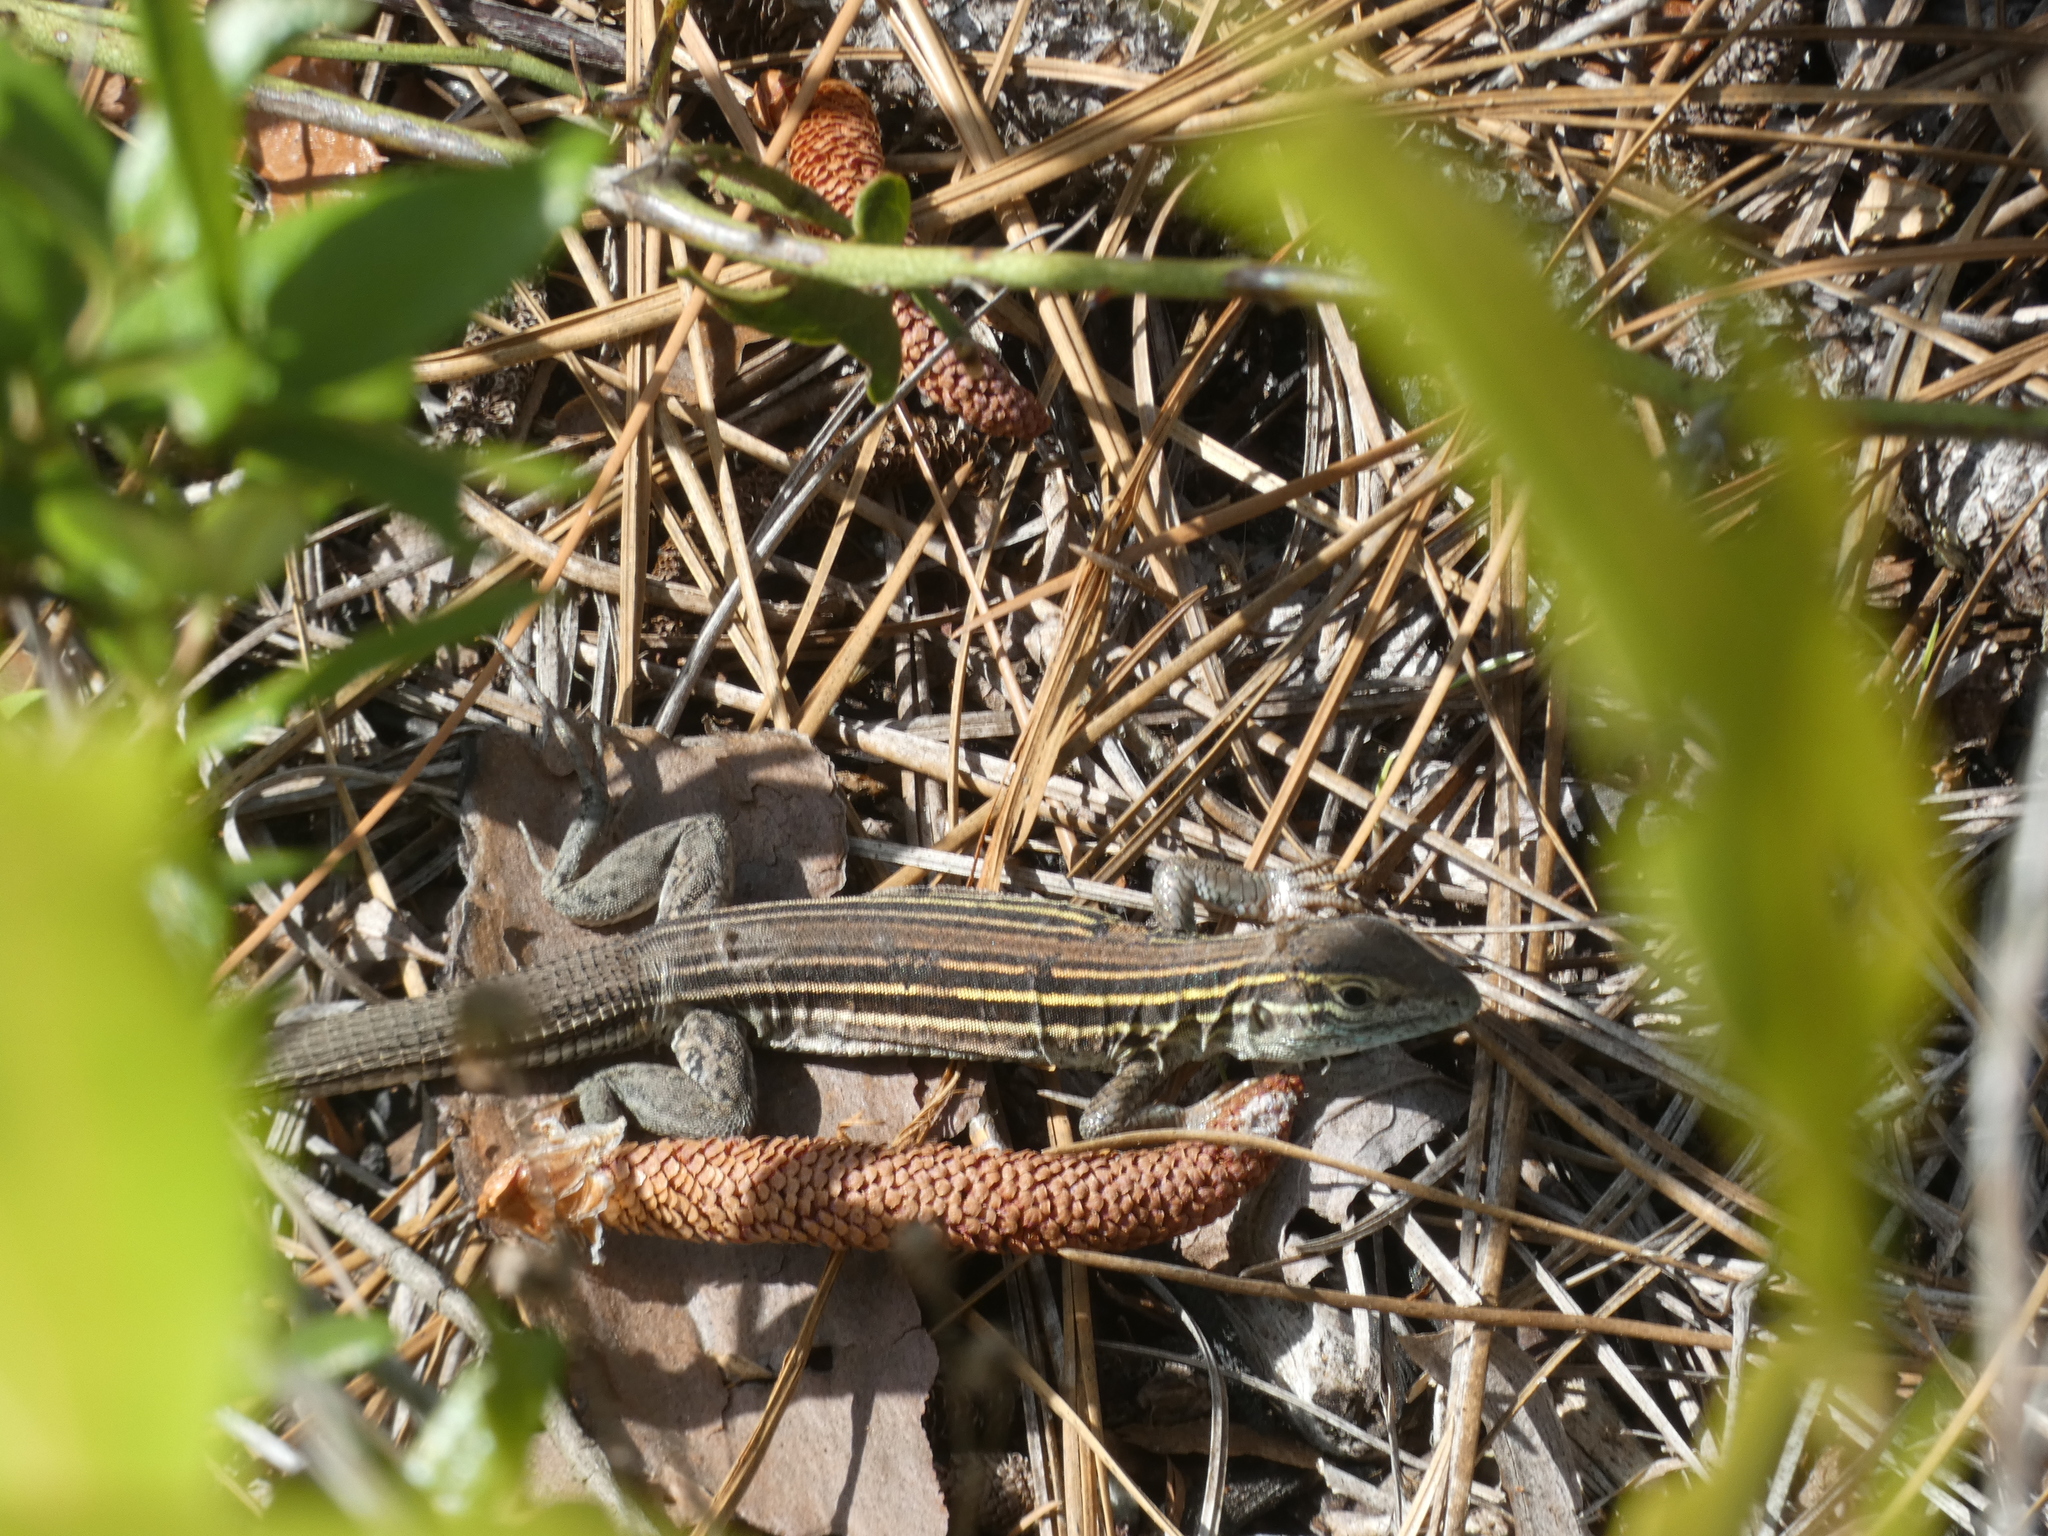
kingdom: Animalia
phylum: Chordata
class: Squamata
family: Teiidae
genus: Aspidoscelis
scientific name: Aspidoscelis sexlineatus
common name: Six-lined racerunner
